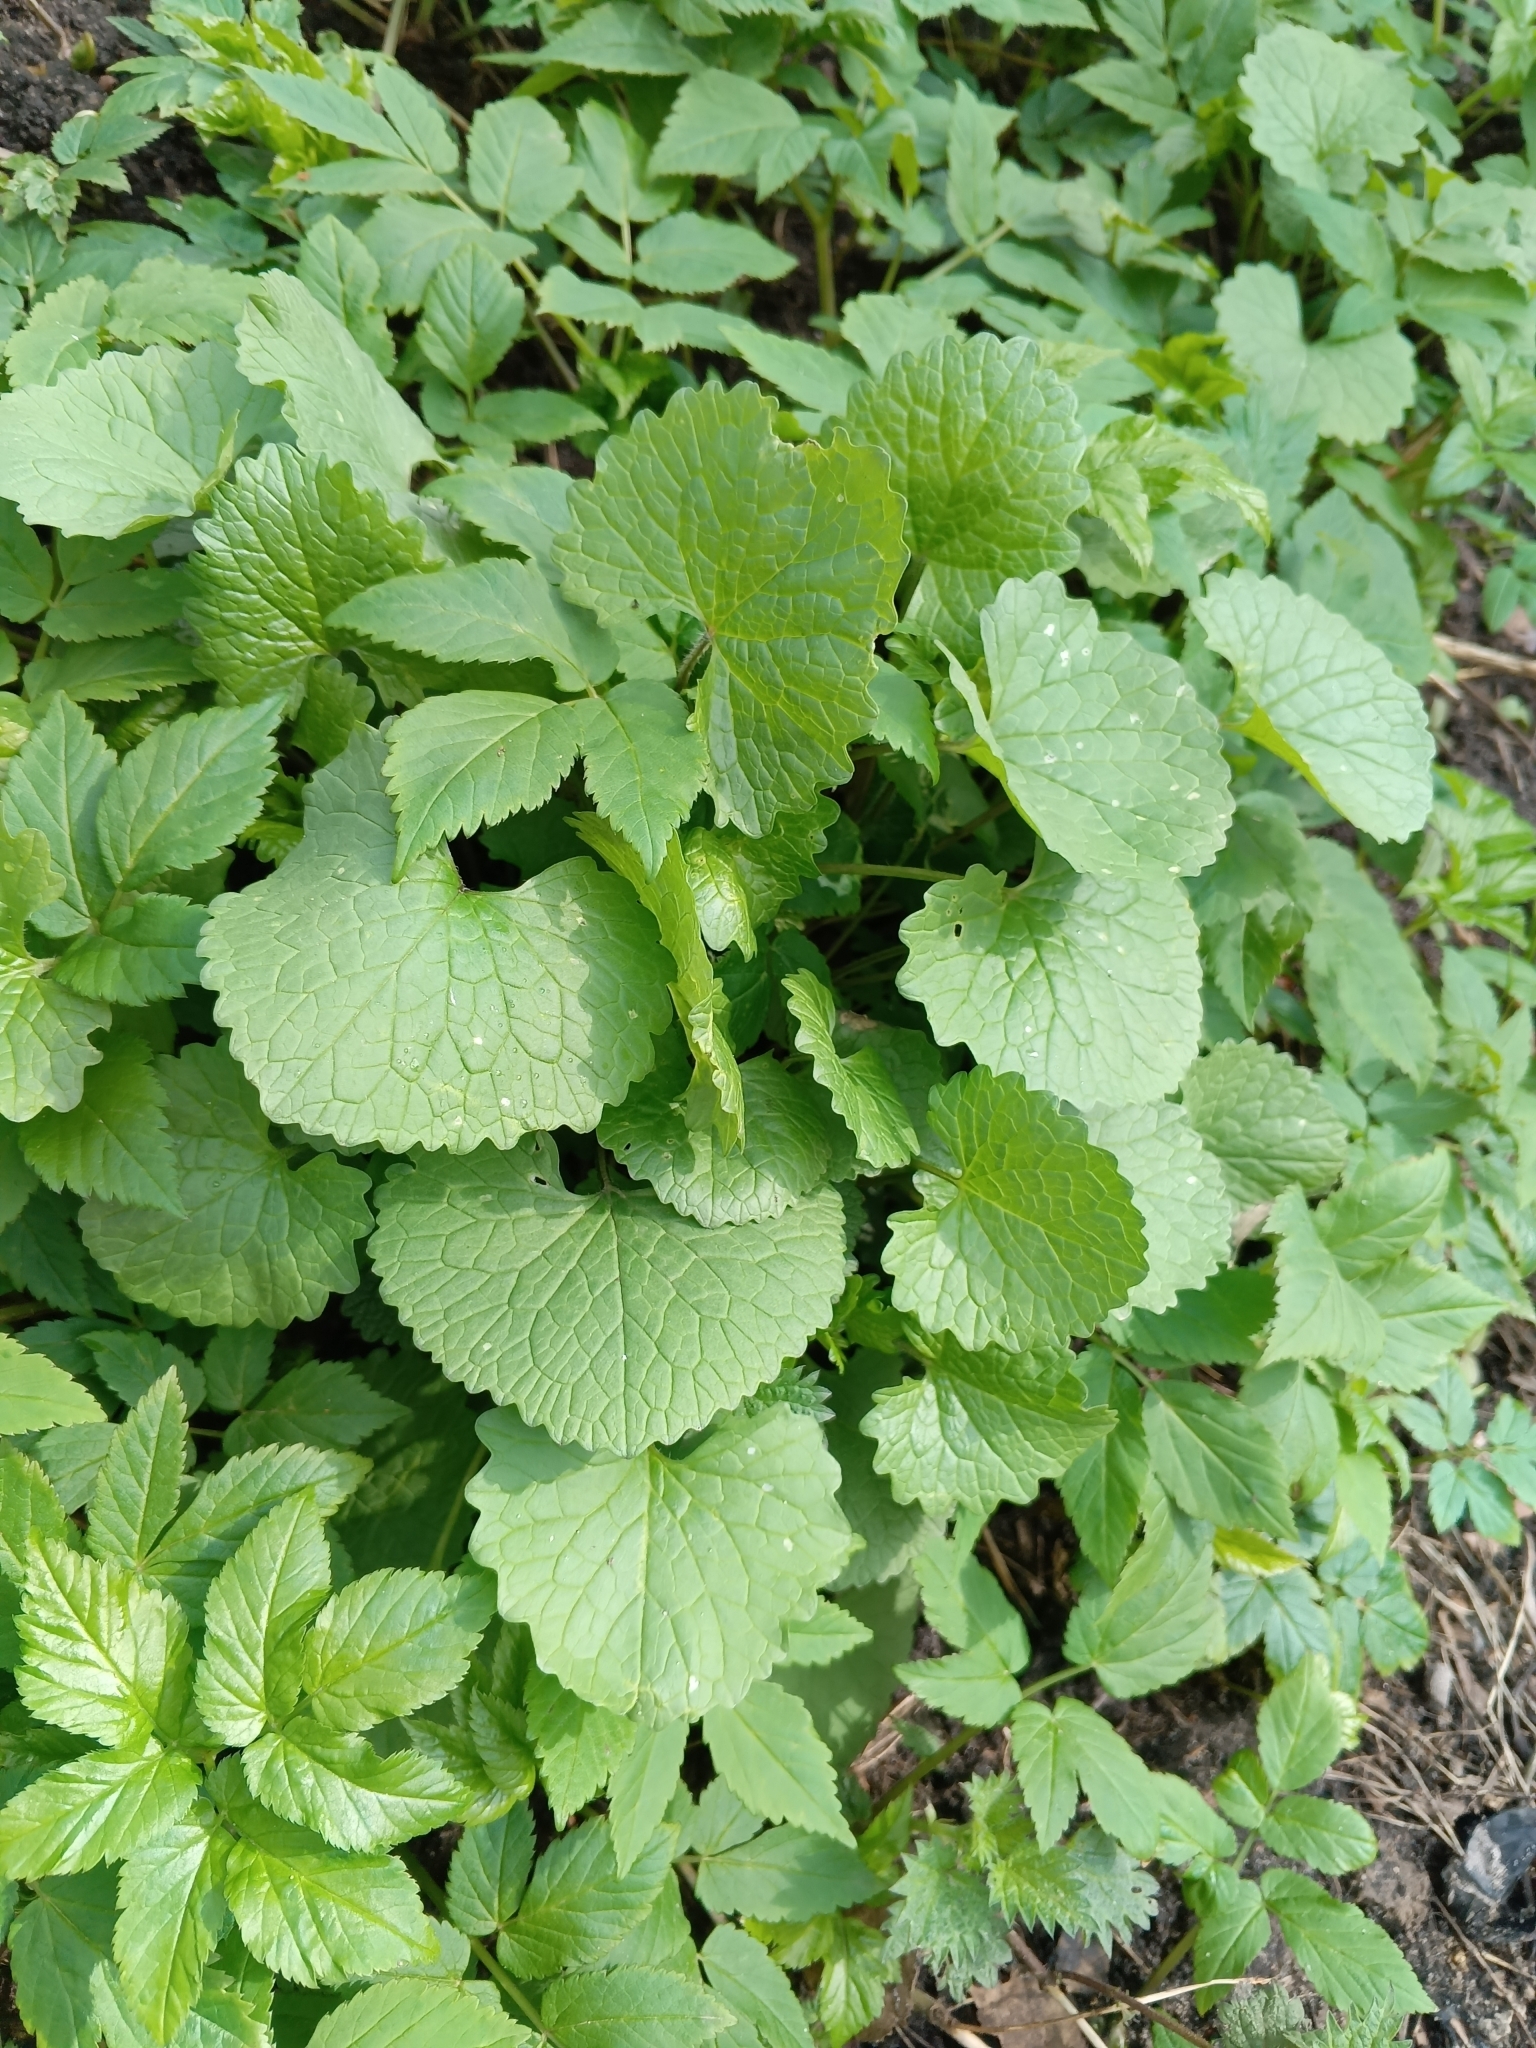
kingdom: Plantae
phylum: Tracheophyta
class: Magnoliopsida
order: Brassicales
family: Brassicaceae
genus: Alliaria
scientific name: Alliaria petiolata
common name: Garlic mustard
